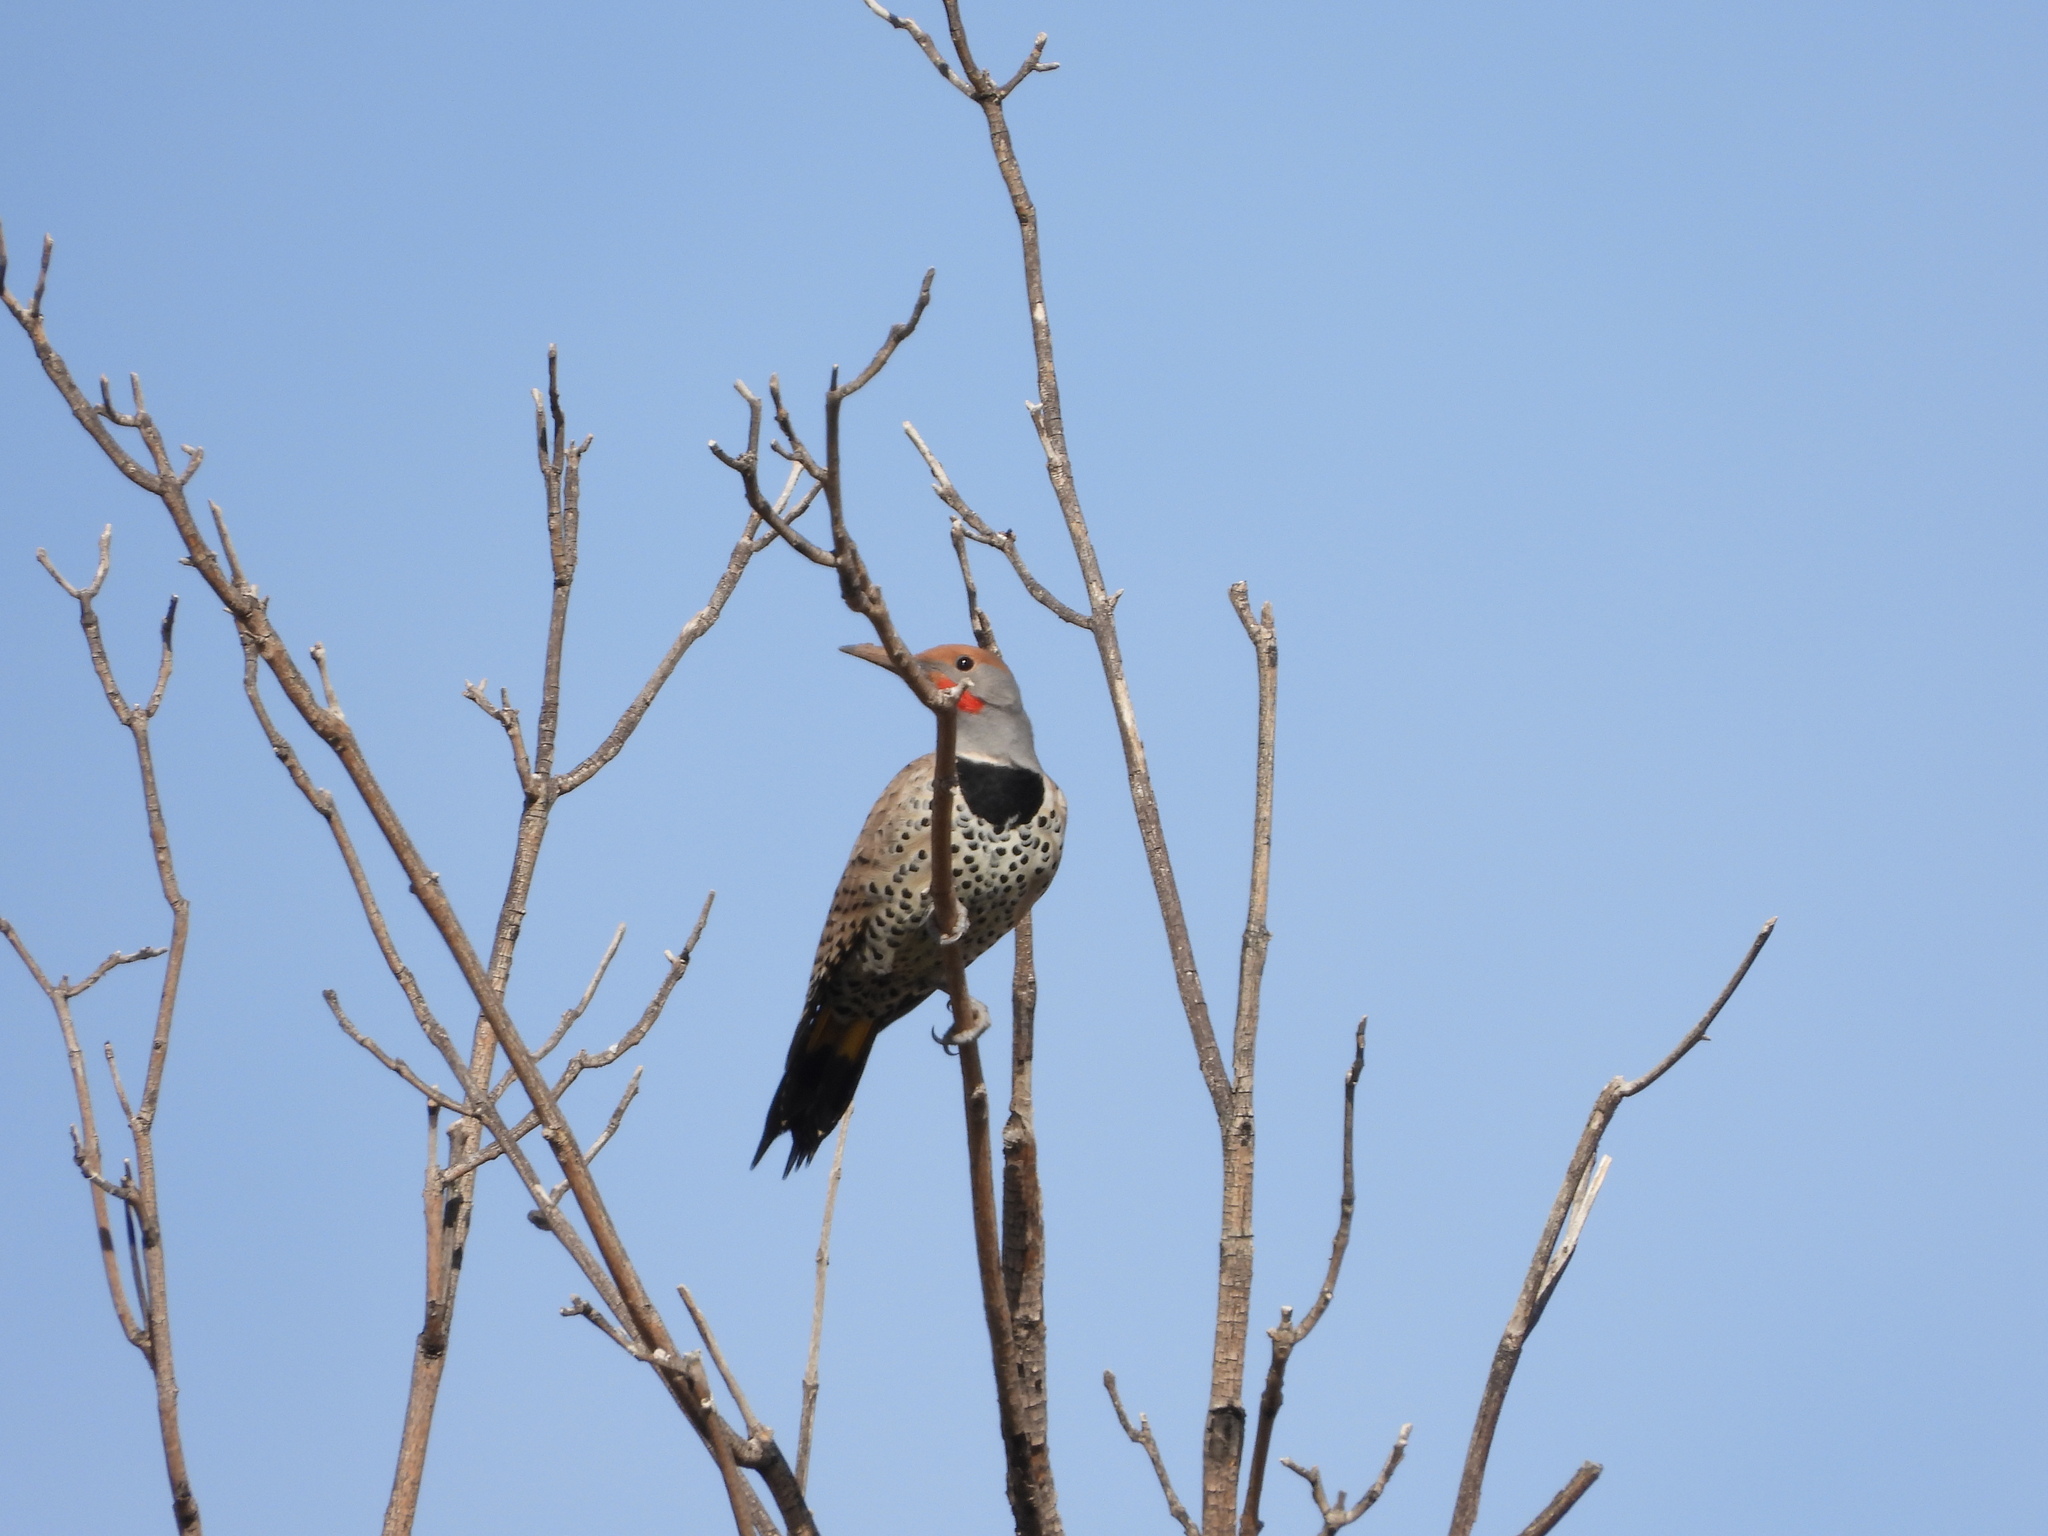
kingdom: Animalia
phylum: Chordata
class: Aves
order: Piciformes
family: Picidae
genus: Colaptes
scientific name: Colaptes chrysoides
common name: Gilded flicker
